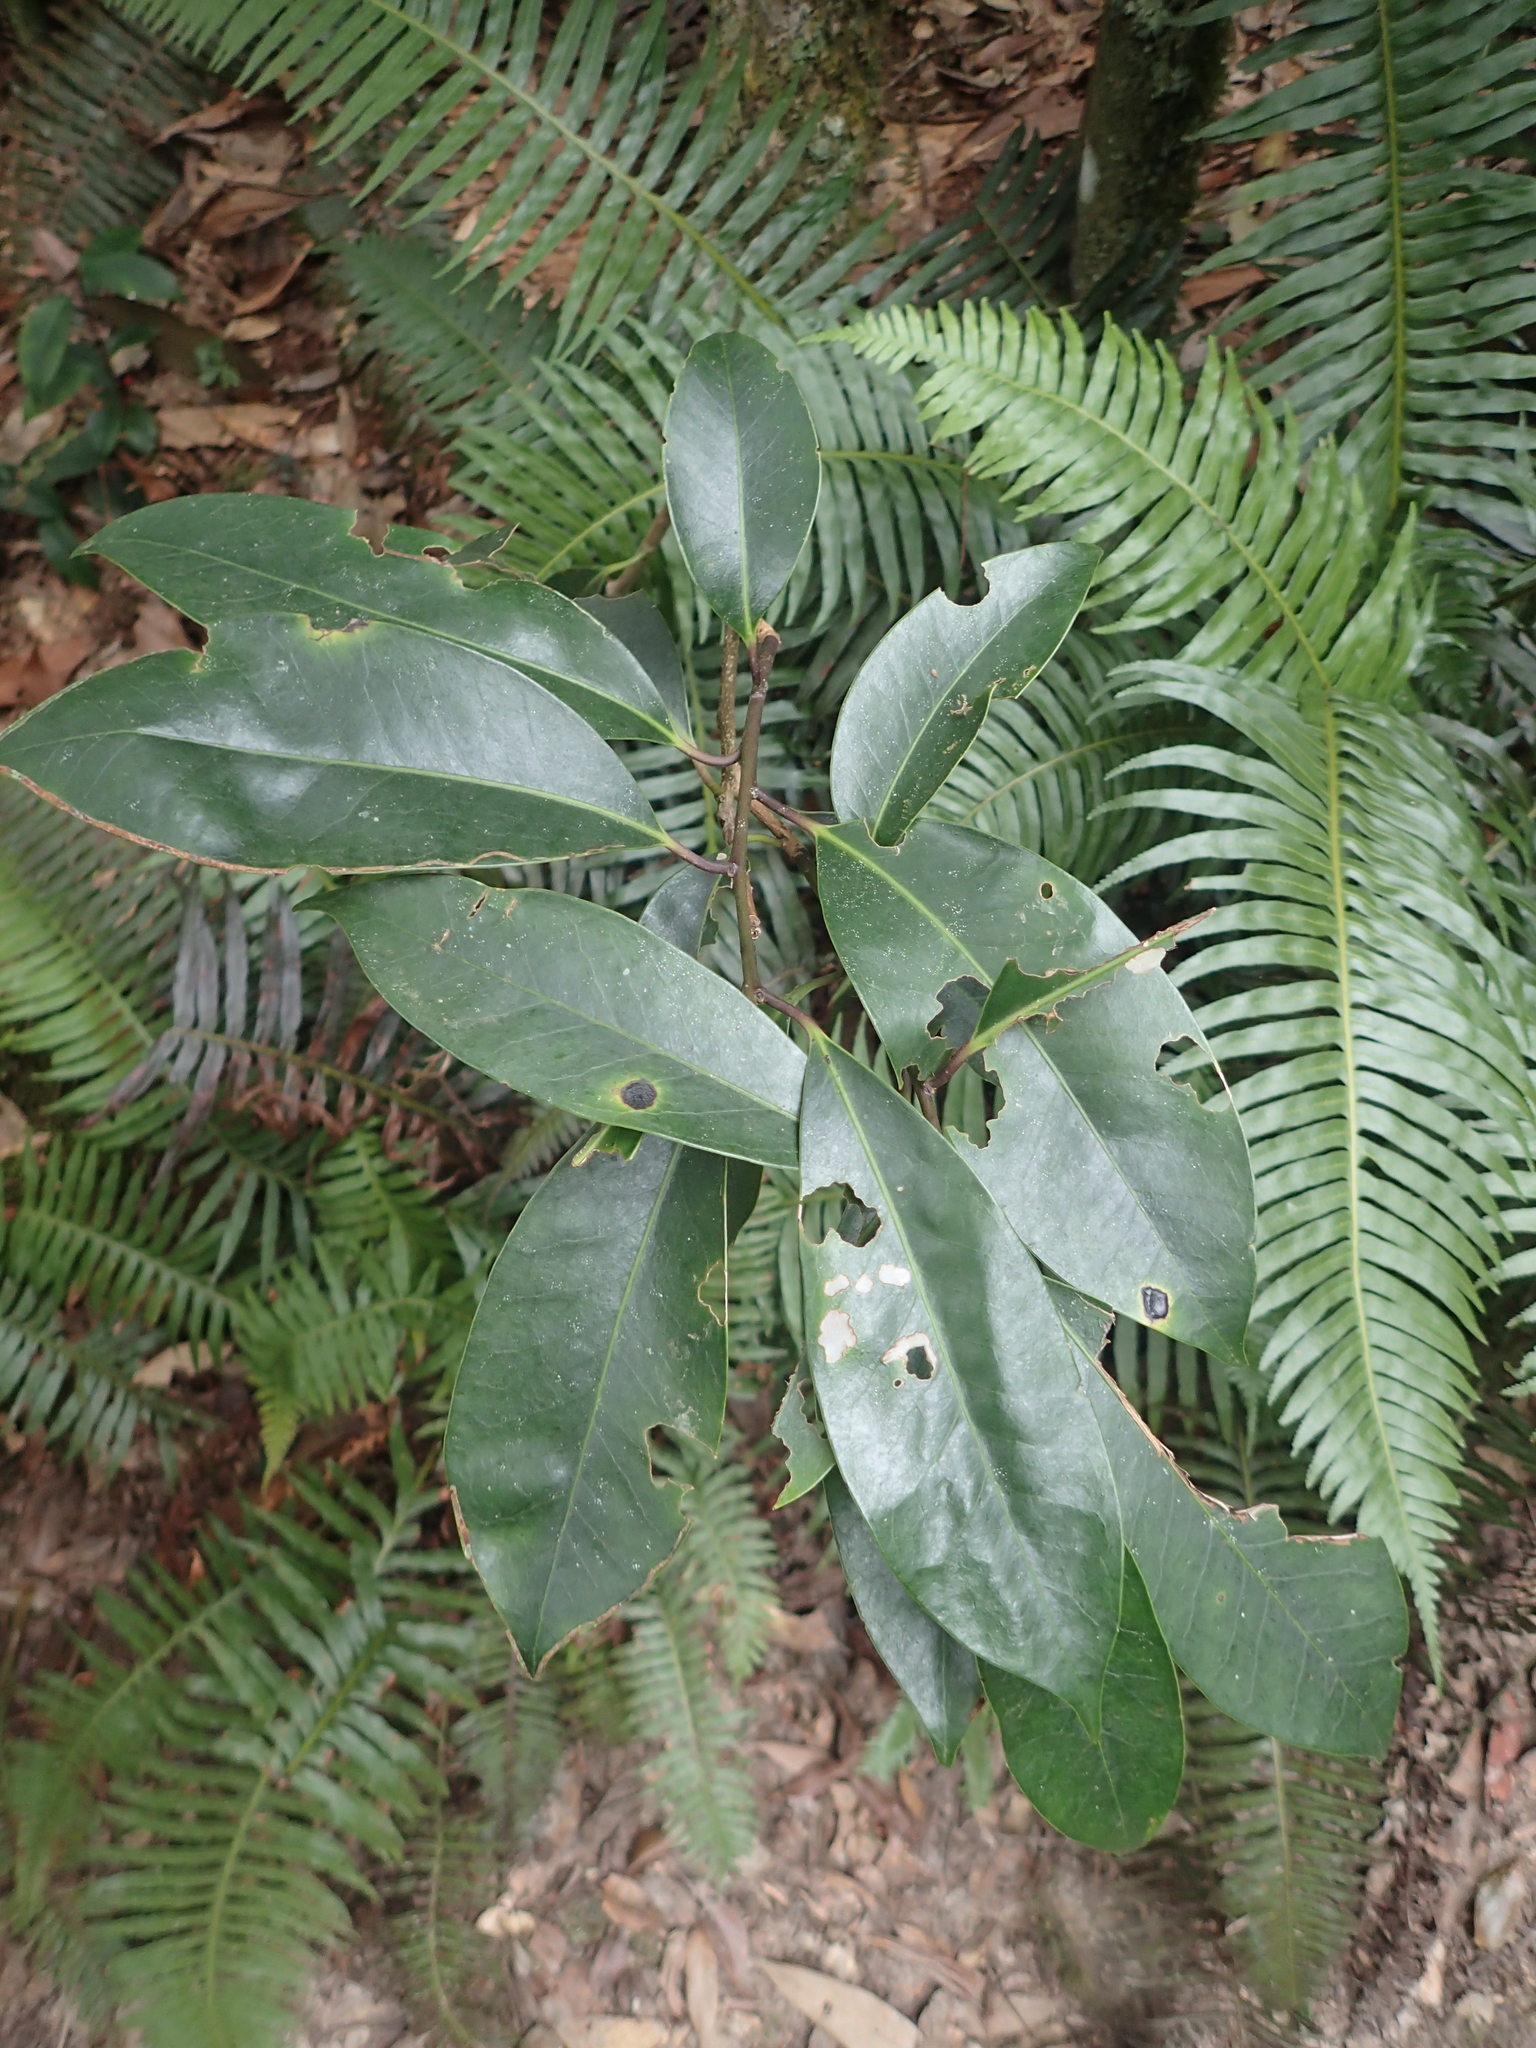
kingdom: Plantae
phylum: Tracheophyta
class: Magnoliopsida
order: Aquifoliales
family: Aquifoliaceae
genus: Ilex
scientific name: Ilex tugitakayamensis
